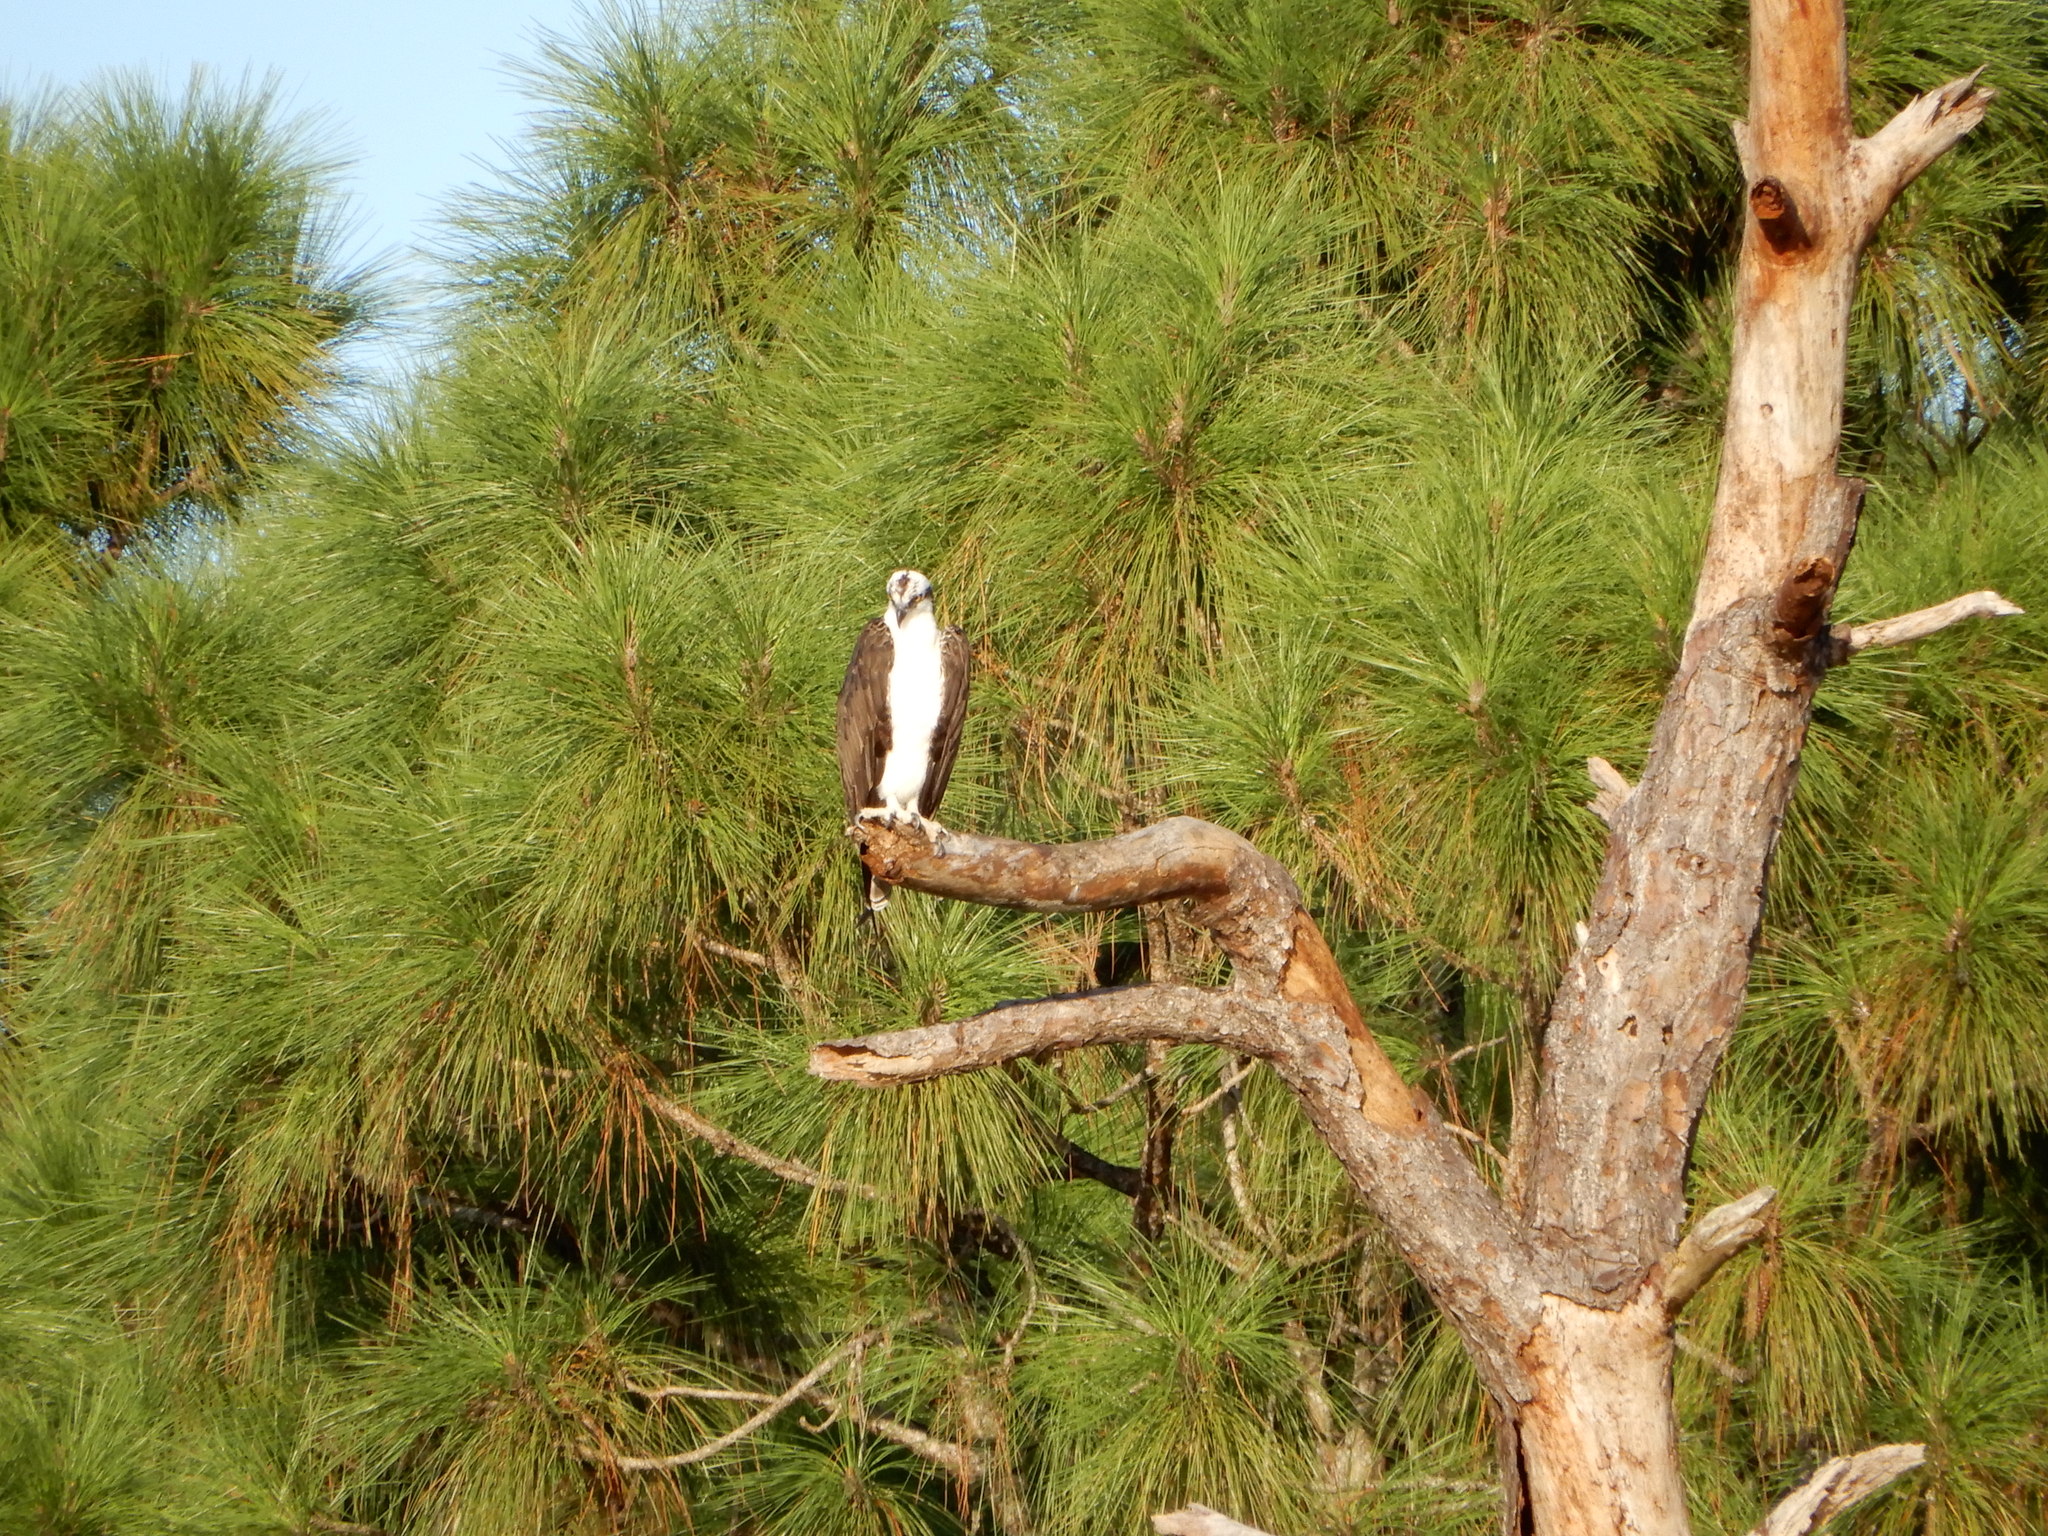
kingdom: Animalia
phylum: Chordata
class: Aves
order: Accipitriformes
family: Pandionidae
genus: Pandion
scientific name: Pandion haliaetus
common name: Osprey
